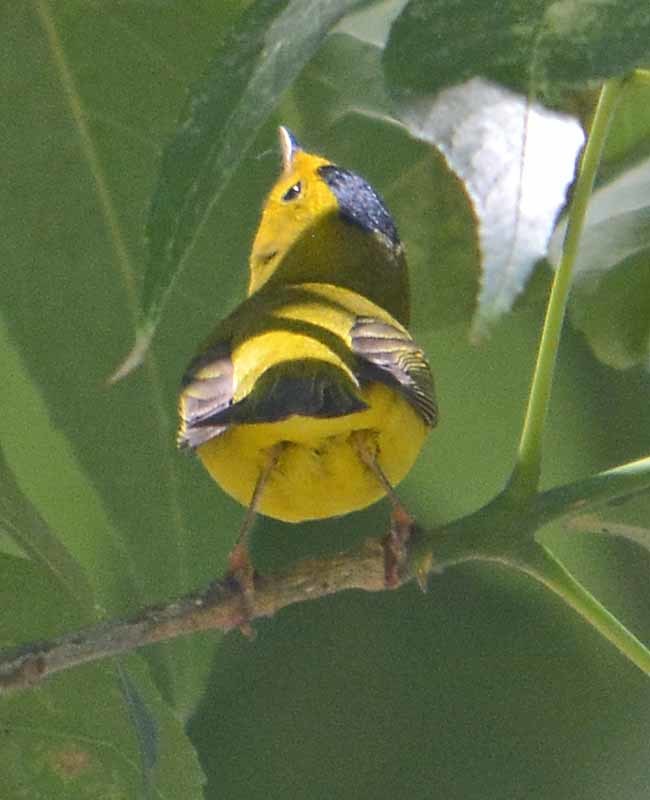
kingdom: Animalia
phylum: Chordata
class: Aves
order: Passeriformes
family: Parulidae
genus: Cardellina
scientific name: Cardellina pusilla
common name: Wilson's warbler
